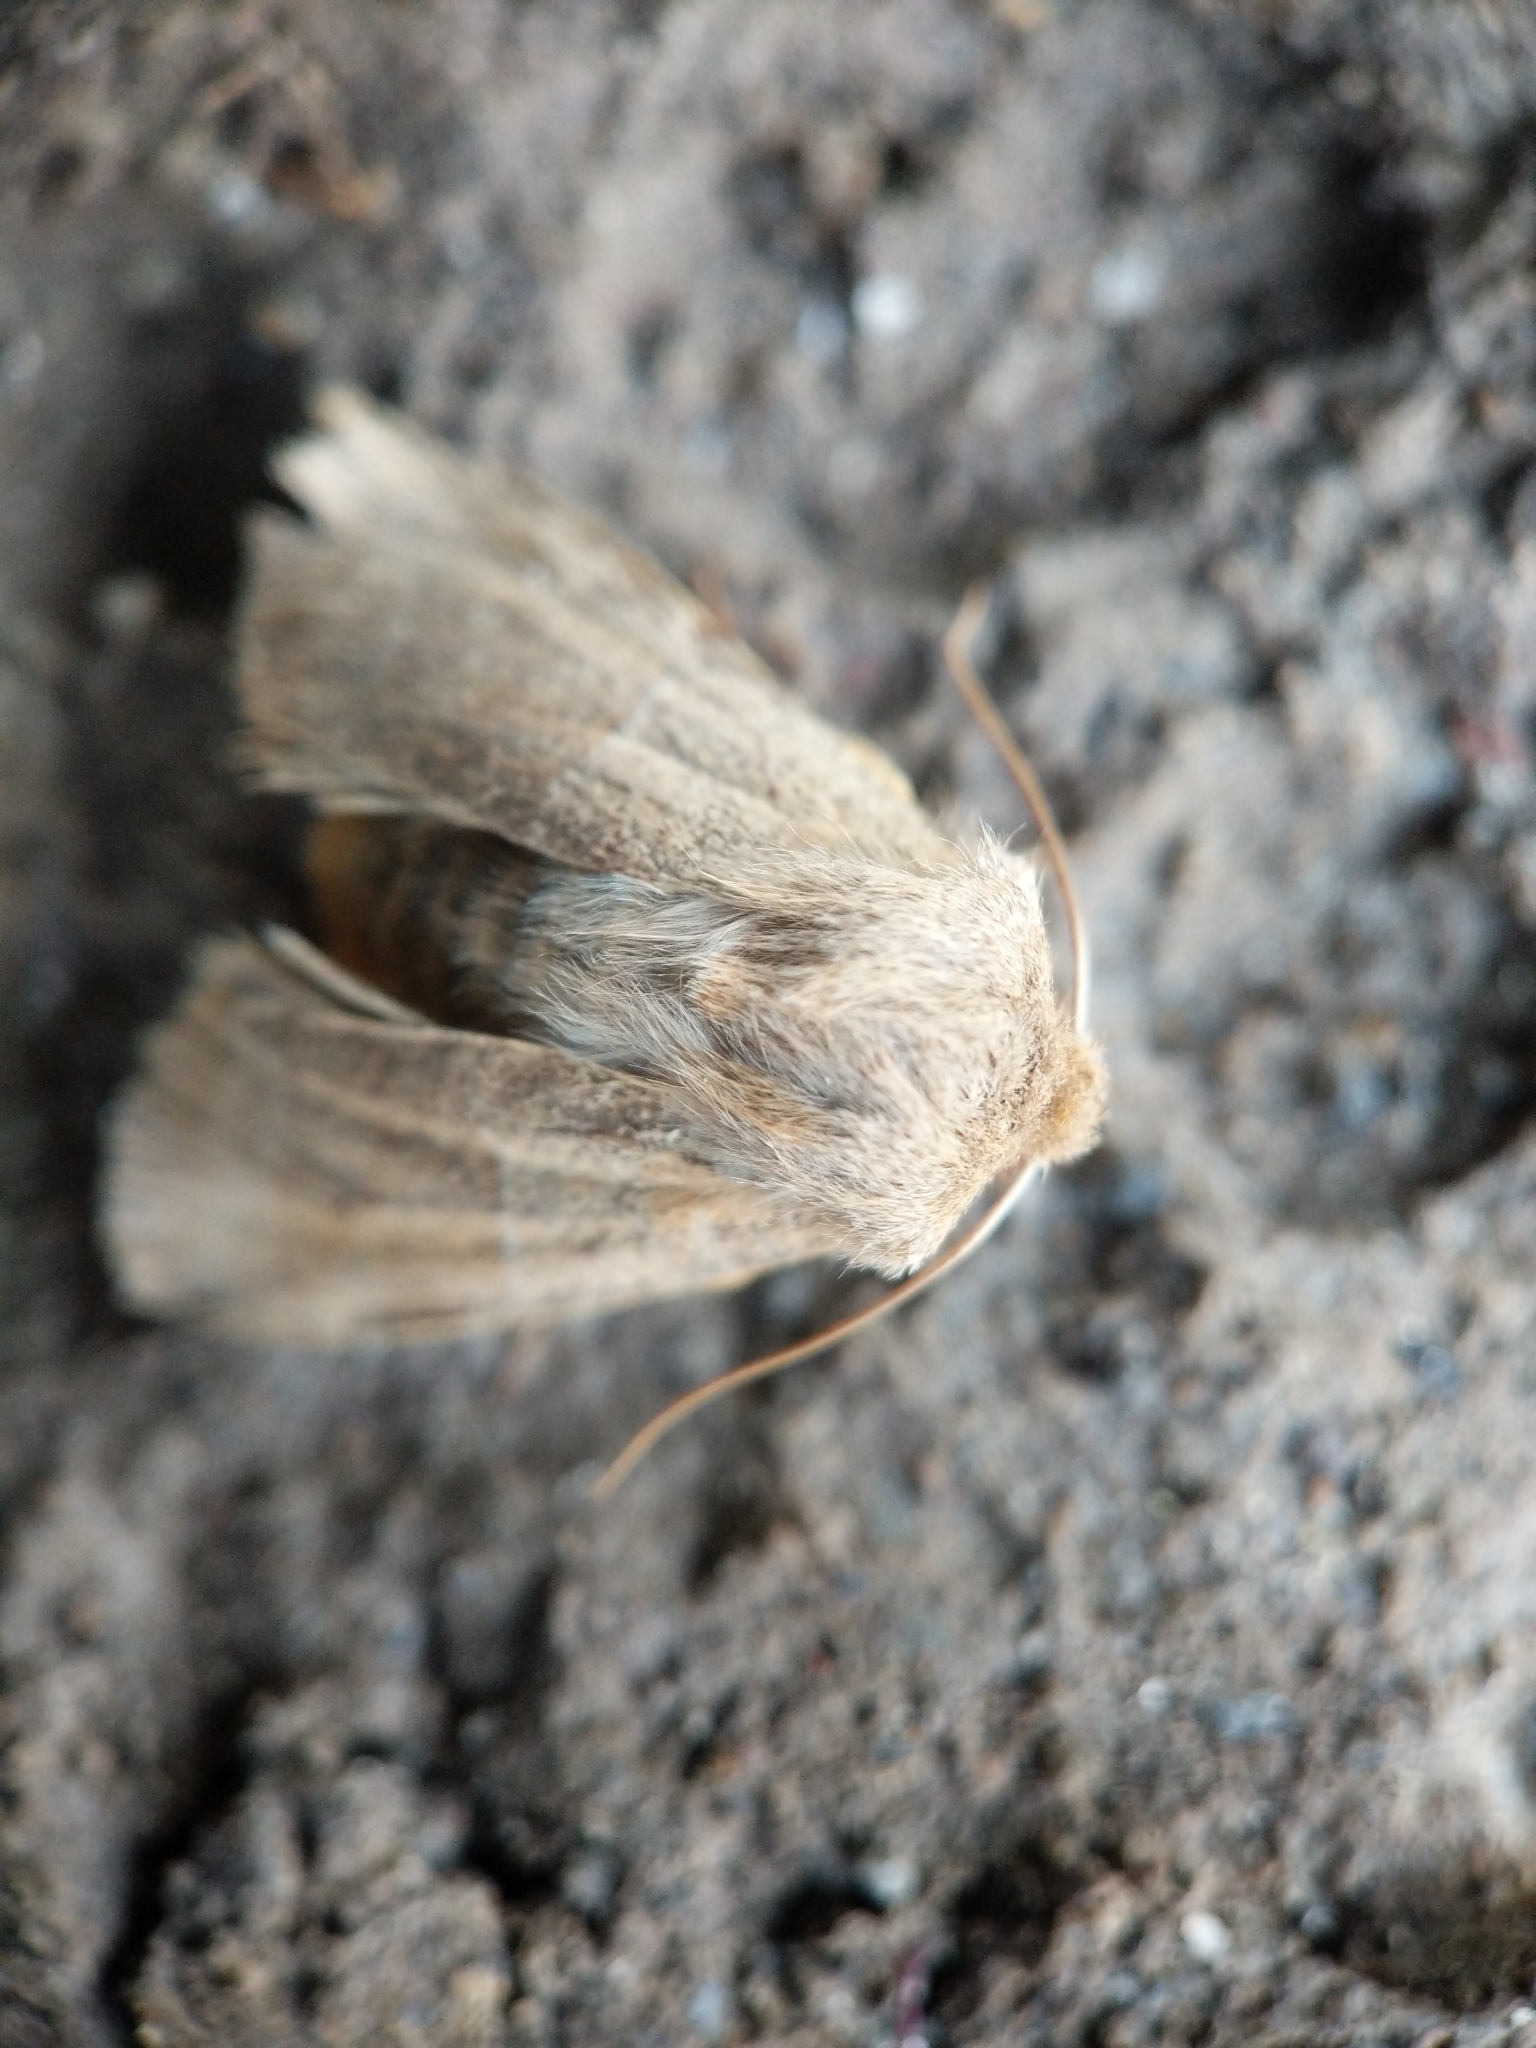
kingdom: Animalia
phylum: Arthropoda
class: Insecta
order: Lepidoptera
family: Noctuidae
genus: Eupsilia
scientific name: Eupsilia morrisoni
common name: Morrison's sallow
